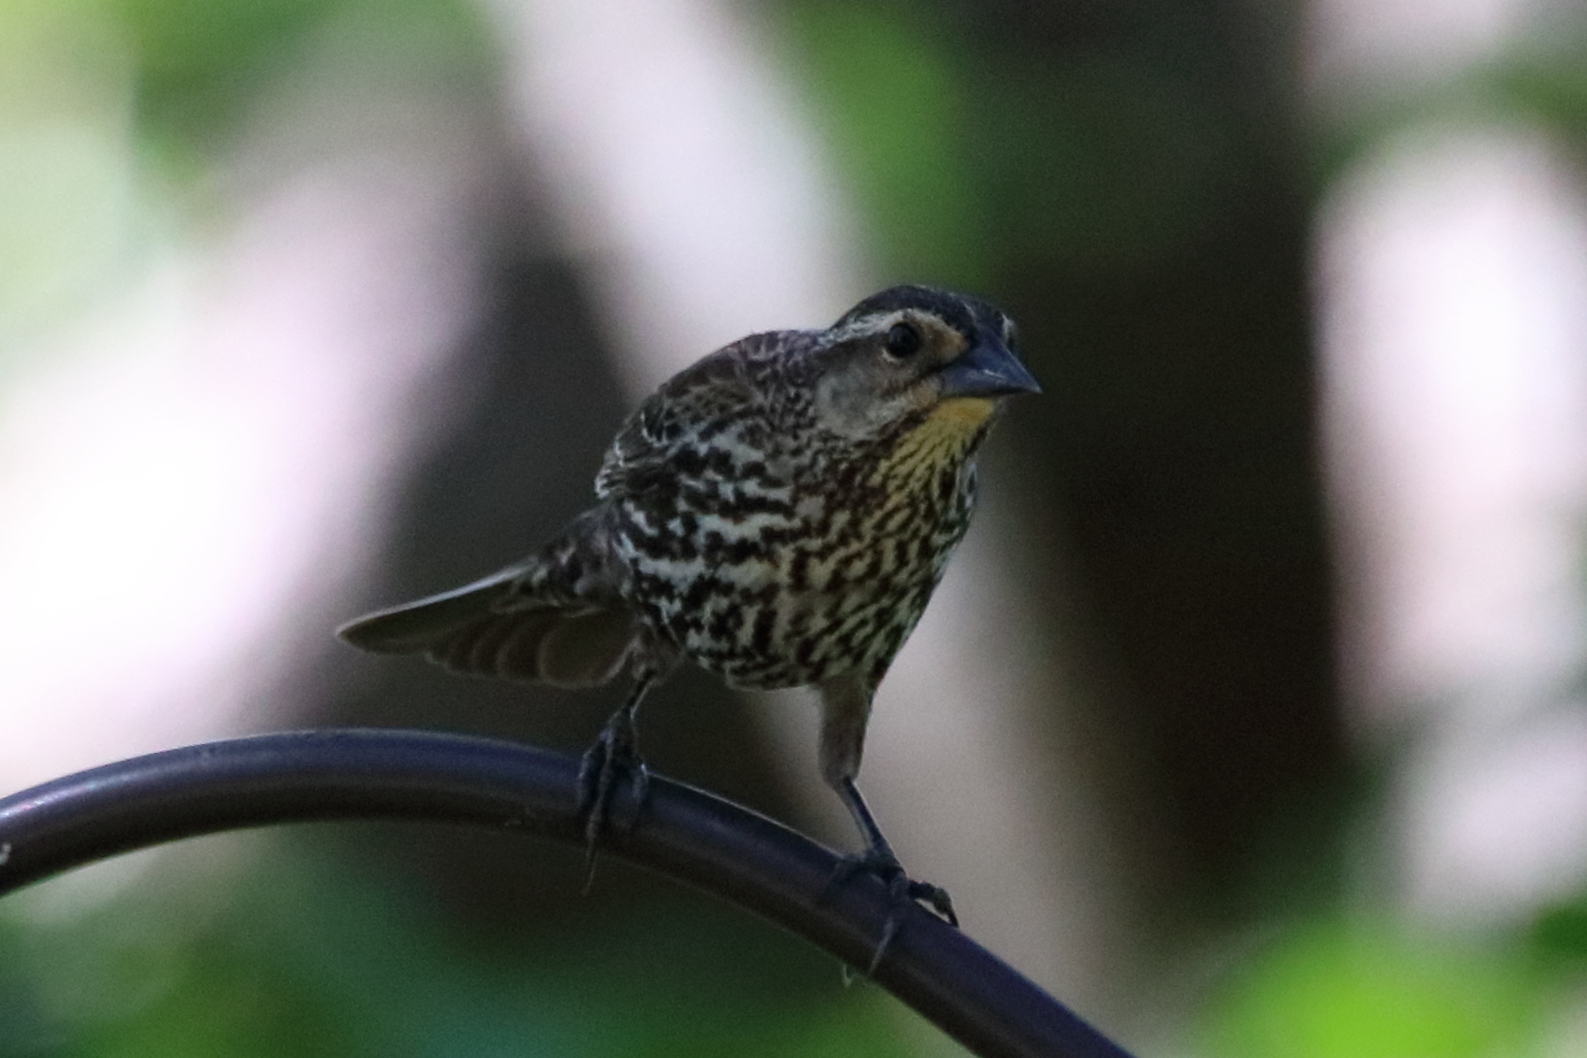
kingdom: Animalia
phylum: Chordata
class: Aves
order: Passeriformes
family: Icteridae
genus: Agelaius
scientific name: Agelaius phoeniceus
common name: Red-winged blackbird
